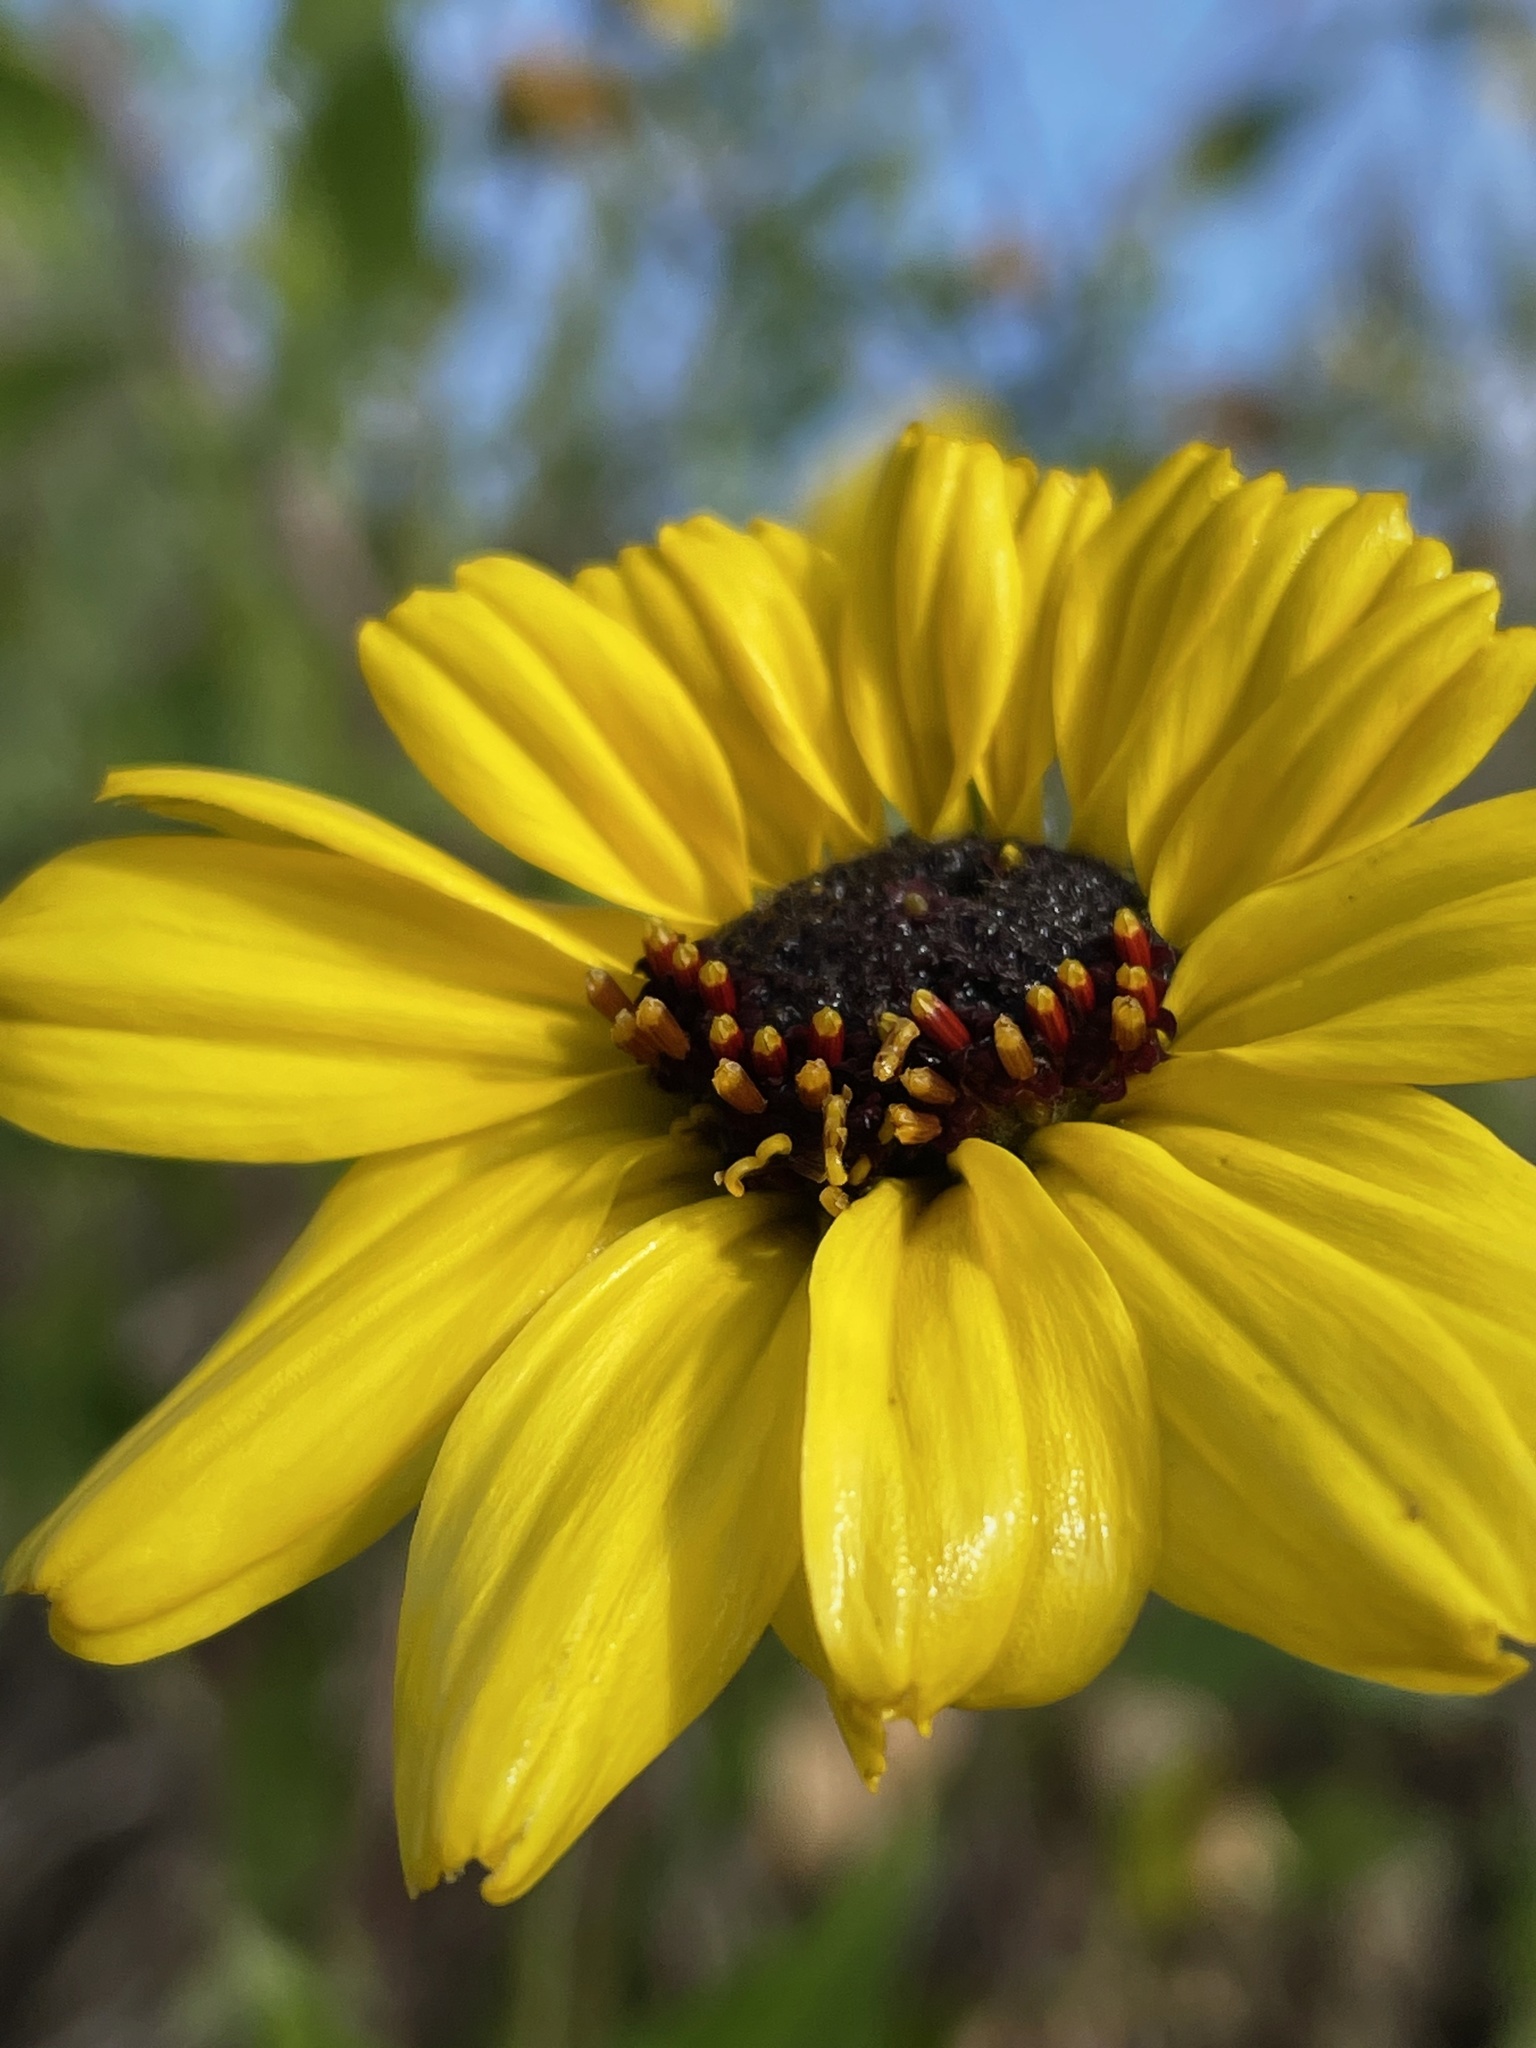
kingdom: Plantae
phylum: Tracheophyta
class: Magnoliopsida
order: Asterales
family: Asteraceae
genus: Encelia
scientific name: Encelia californica
